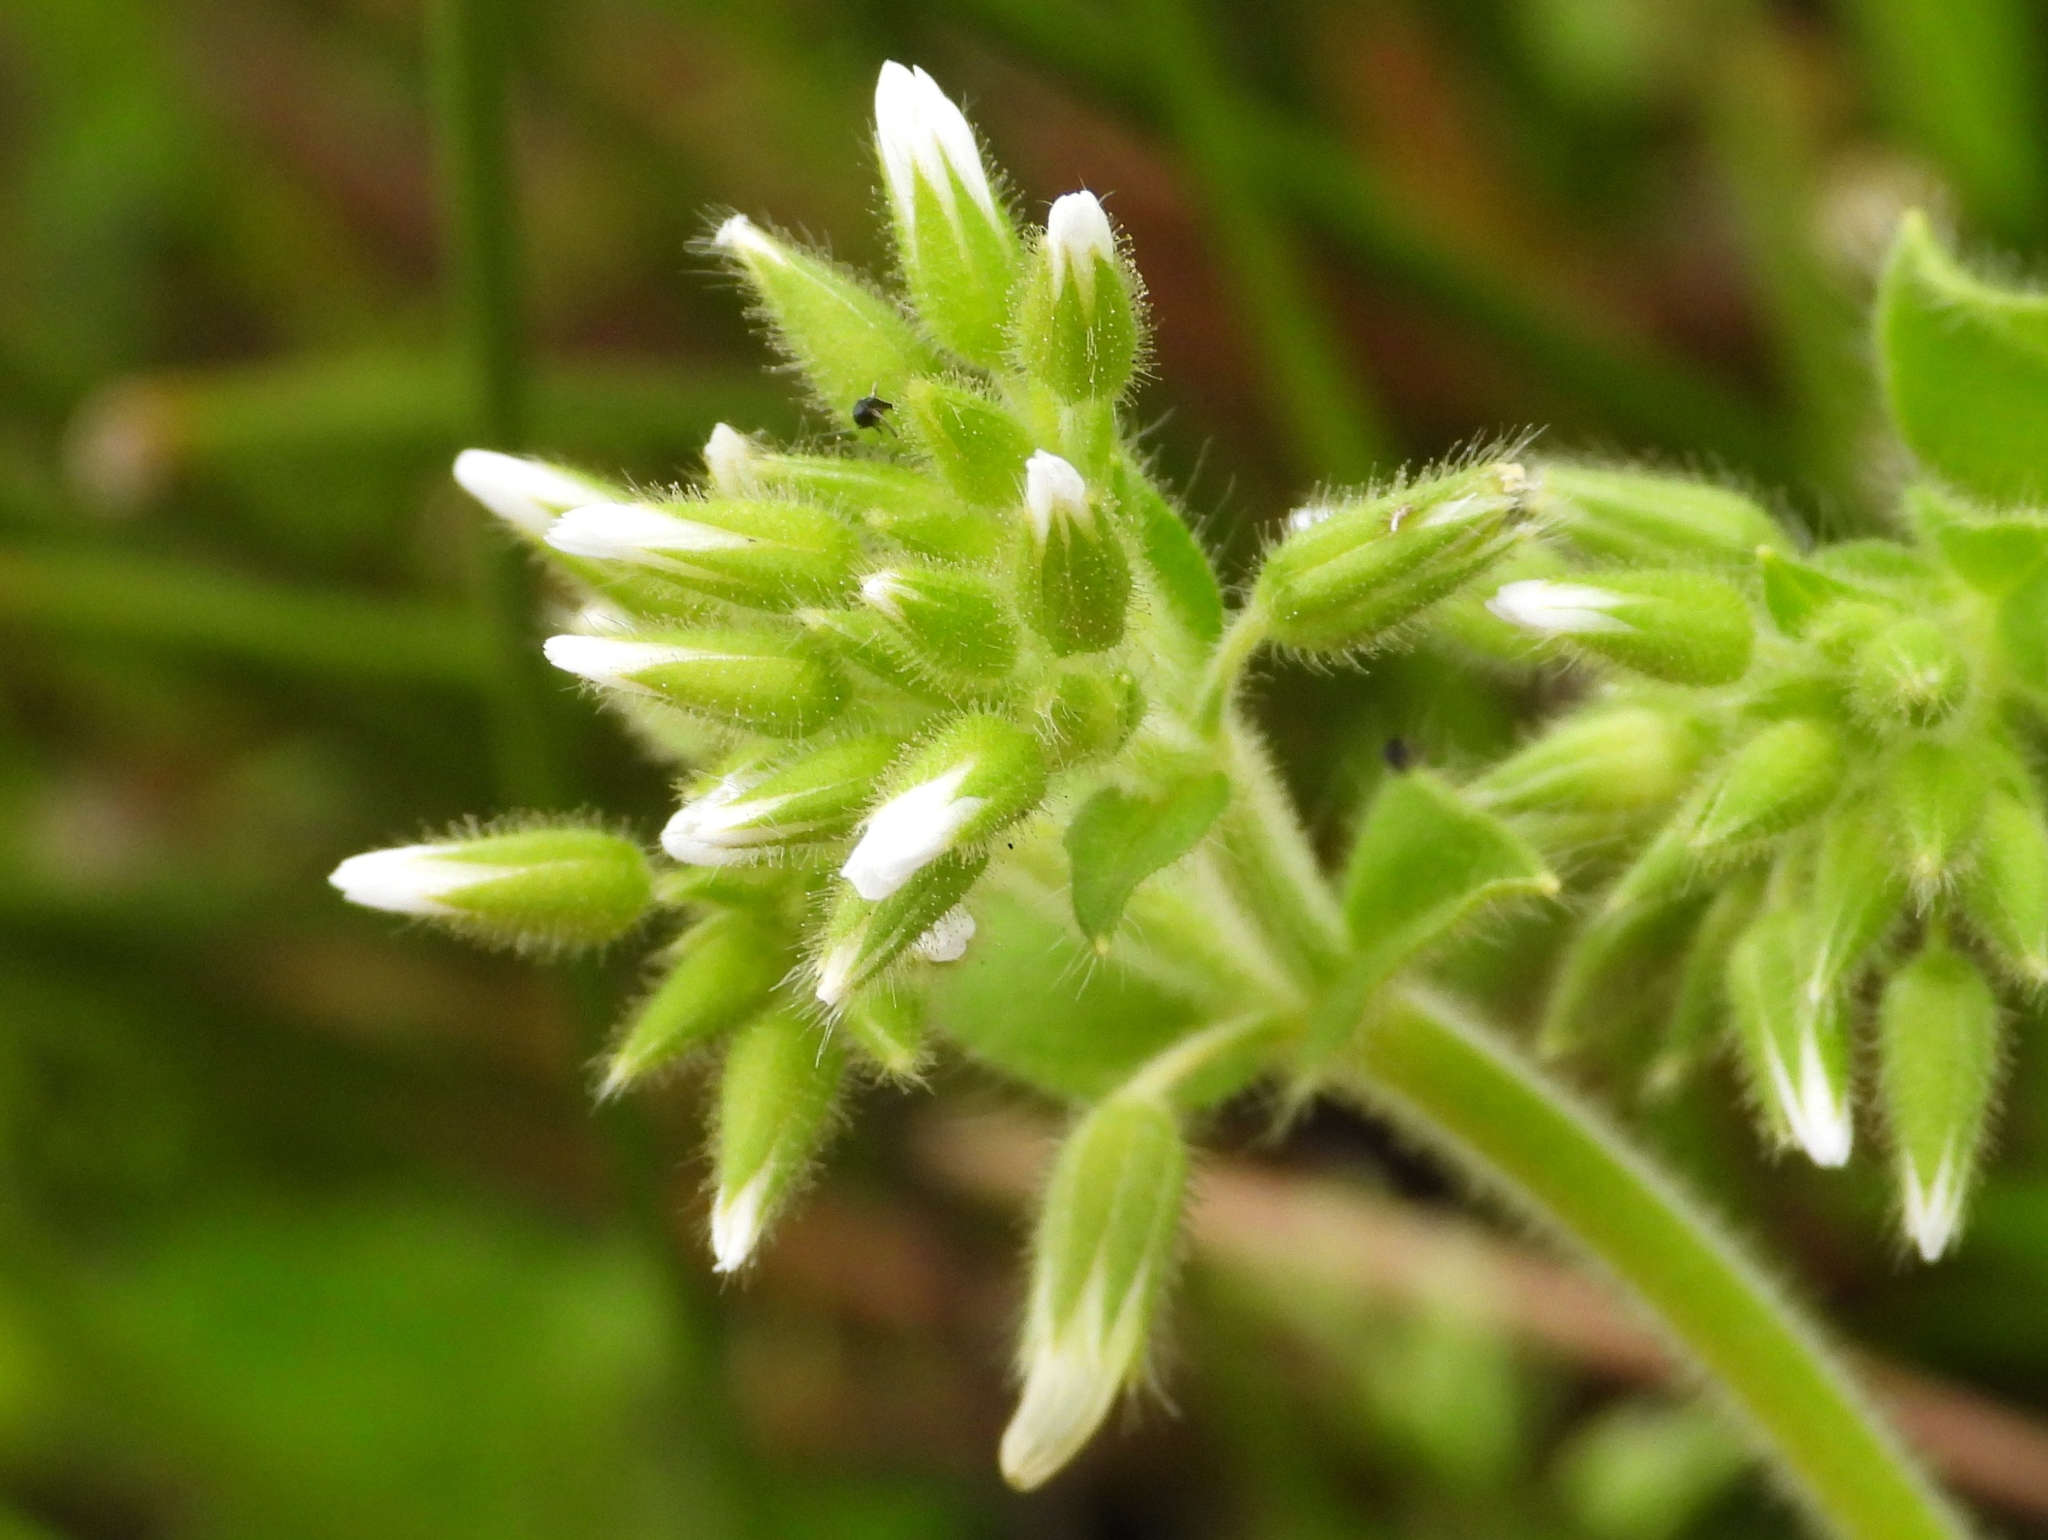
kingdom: Plantae
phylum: Tracheophyta
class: Magnoliopsida
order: Caryophyllales
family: Caryophyllaceae
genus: Cerastium
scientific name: Cerastium glomeratum
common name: Sticky chickweed
